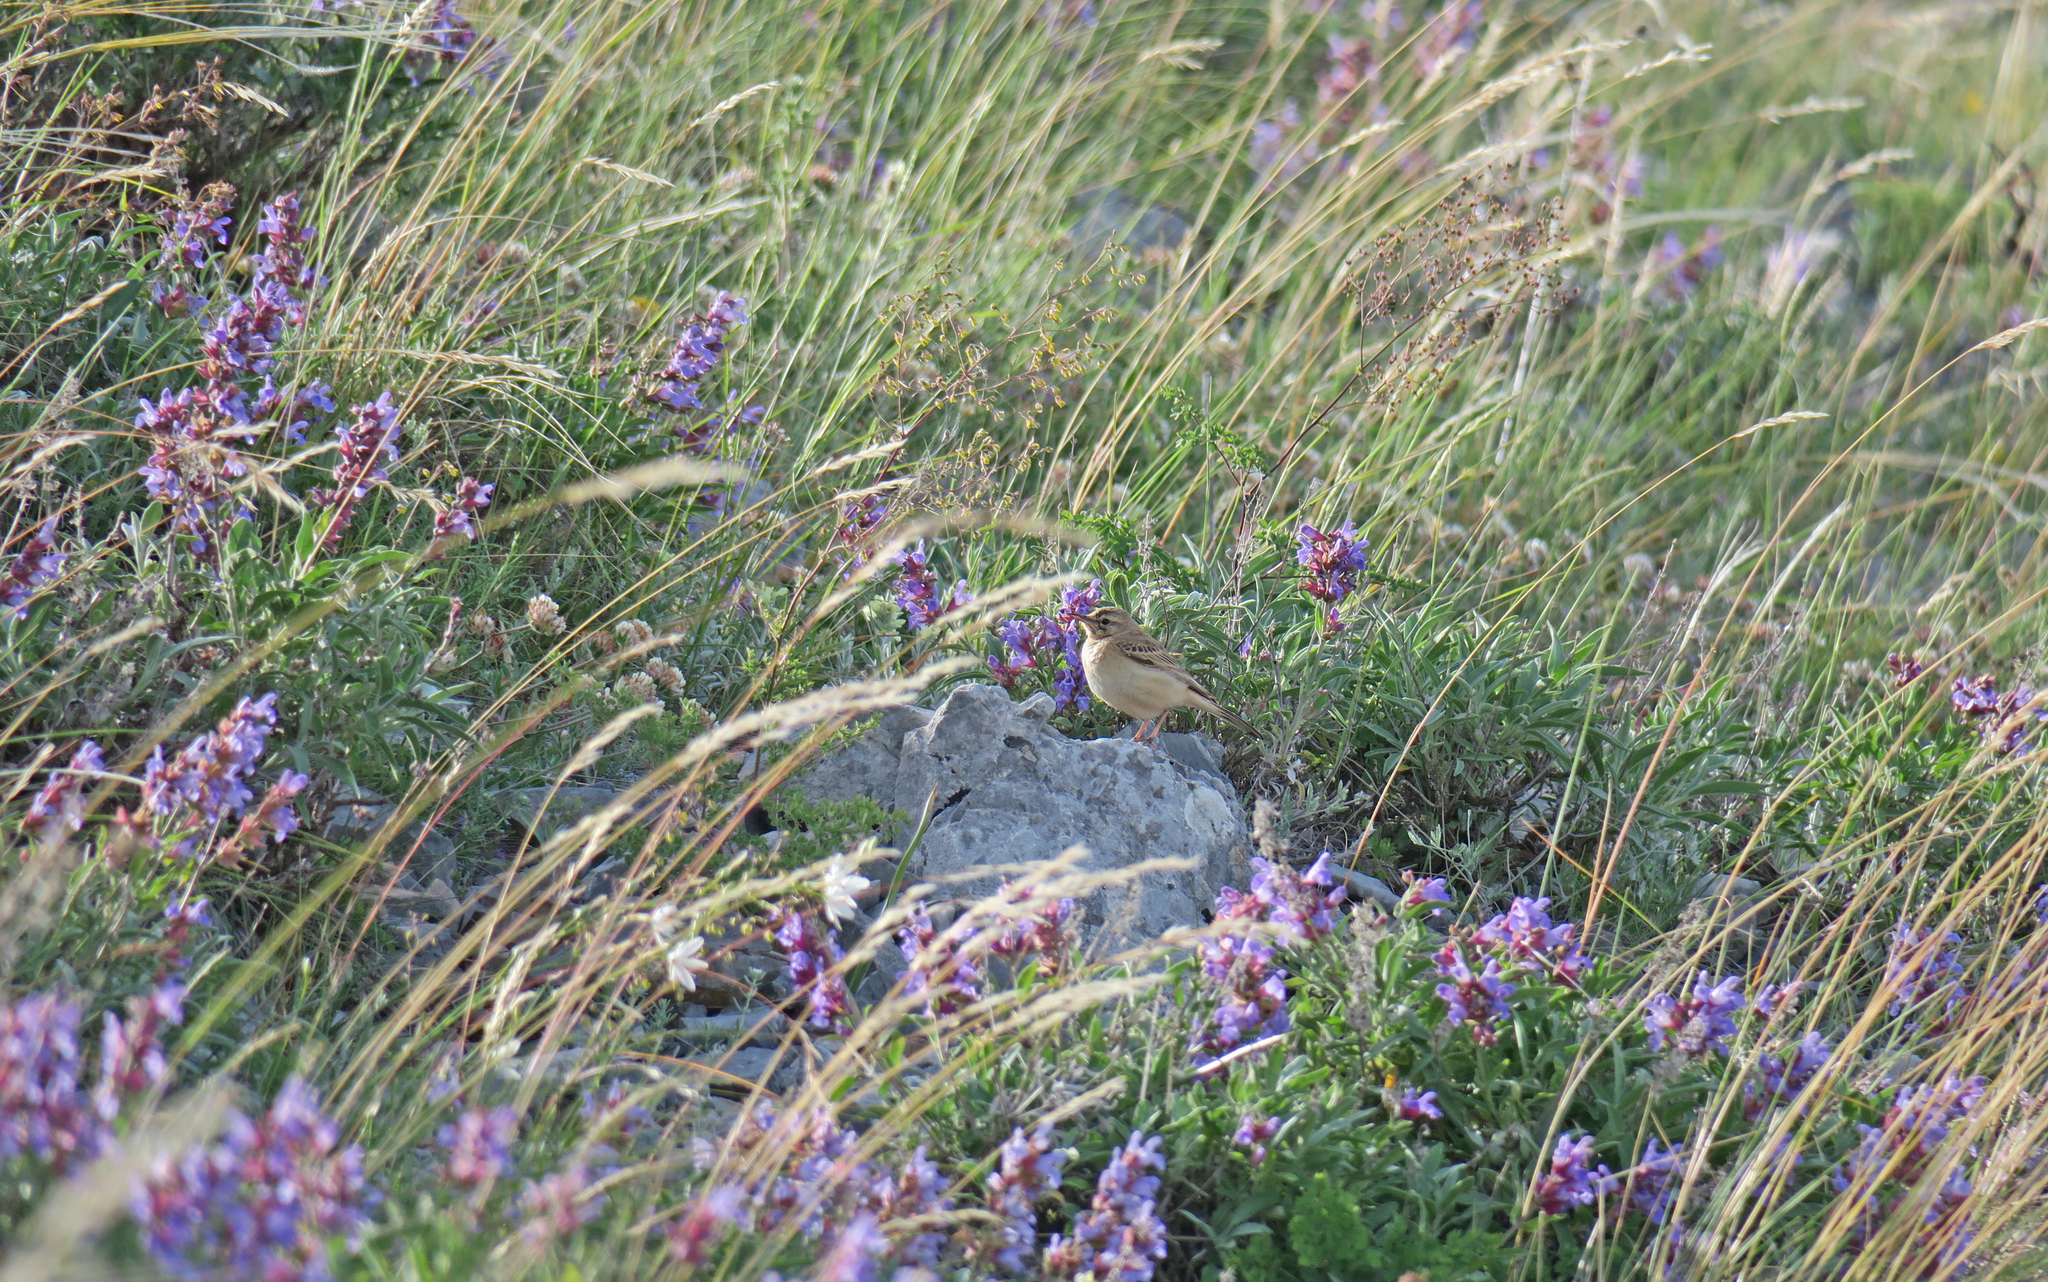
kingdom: Animalia
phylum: Chordata
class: Aves
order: Passeriformes
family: Motacillidae
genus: Anthus
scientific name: Anthus campestris
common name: Tawny pipit
